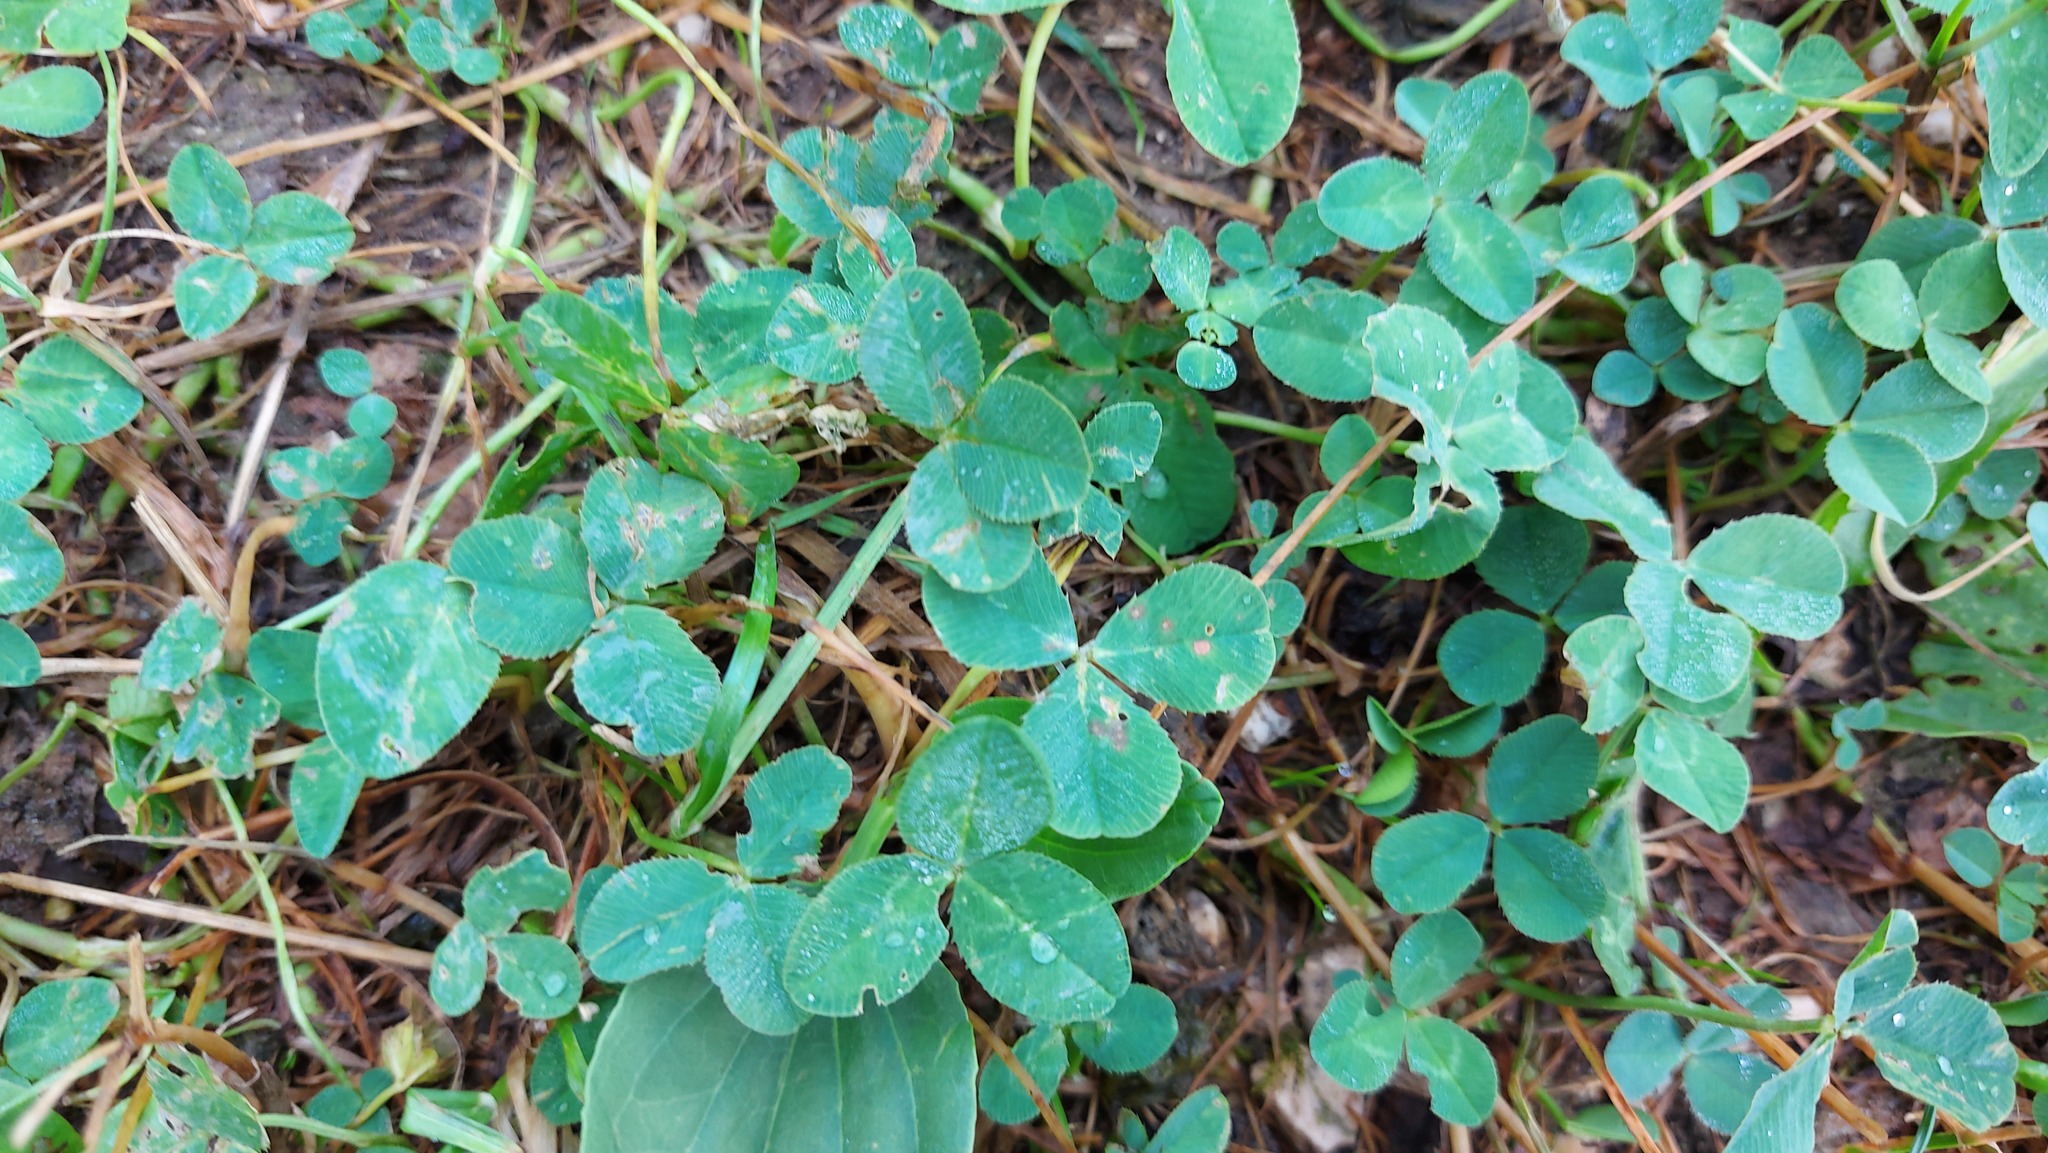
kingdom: Plantae
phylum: Tracheophyta
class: Magnoliopsida
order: Fabales
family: Fabaceae
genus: Trifolium
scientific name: Trifolium repens
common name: White clover
